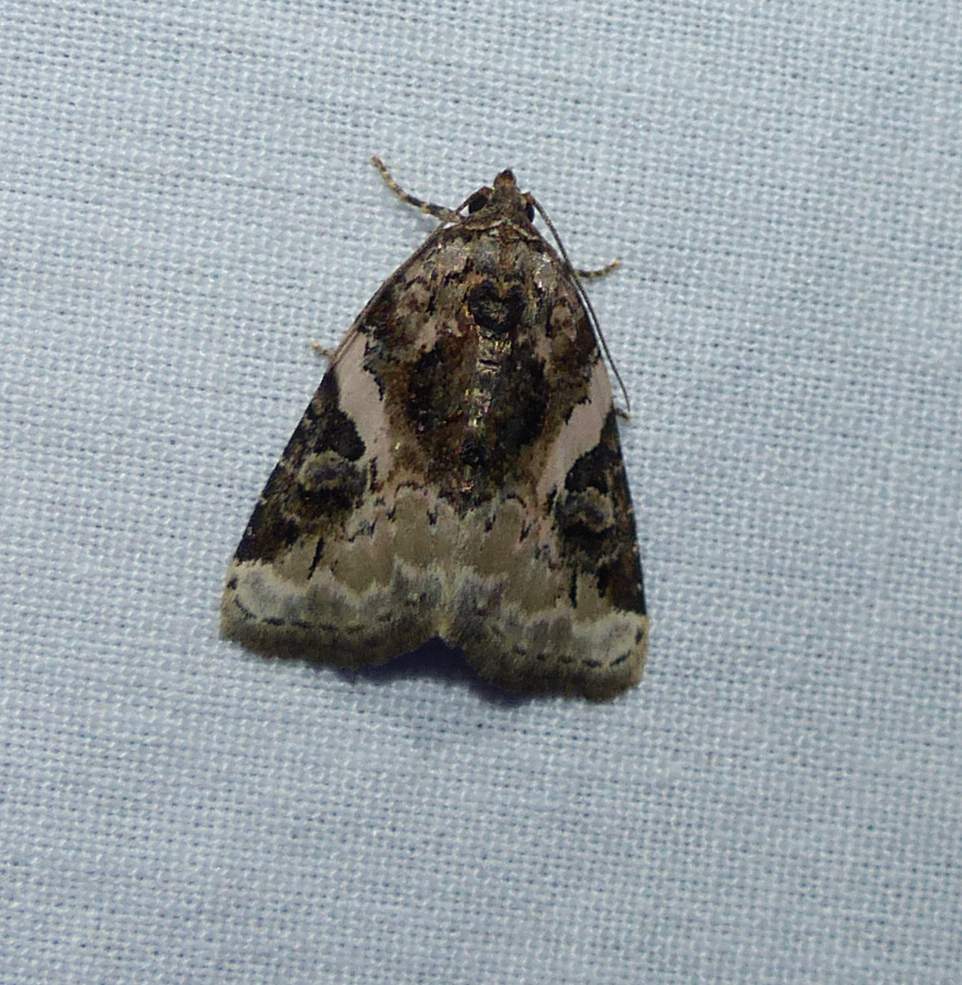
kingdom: Animalia
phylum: Arthropoda
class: Insecta
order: Lepidoptera
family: Noctuidae
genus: Pseudeustrotia
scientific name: Pseudeustrotia carneola
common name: Pink-barred lithacodia moth
